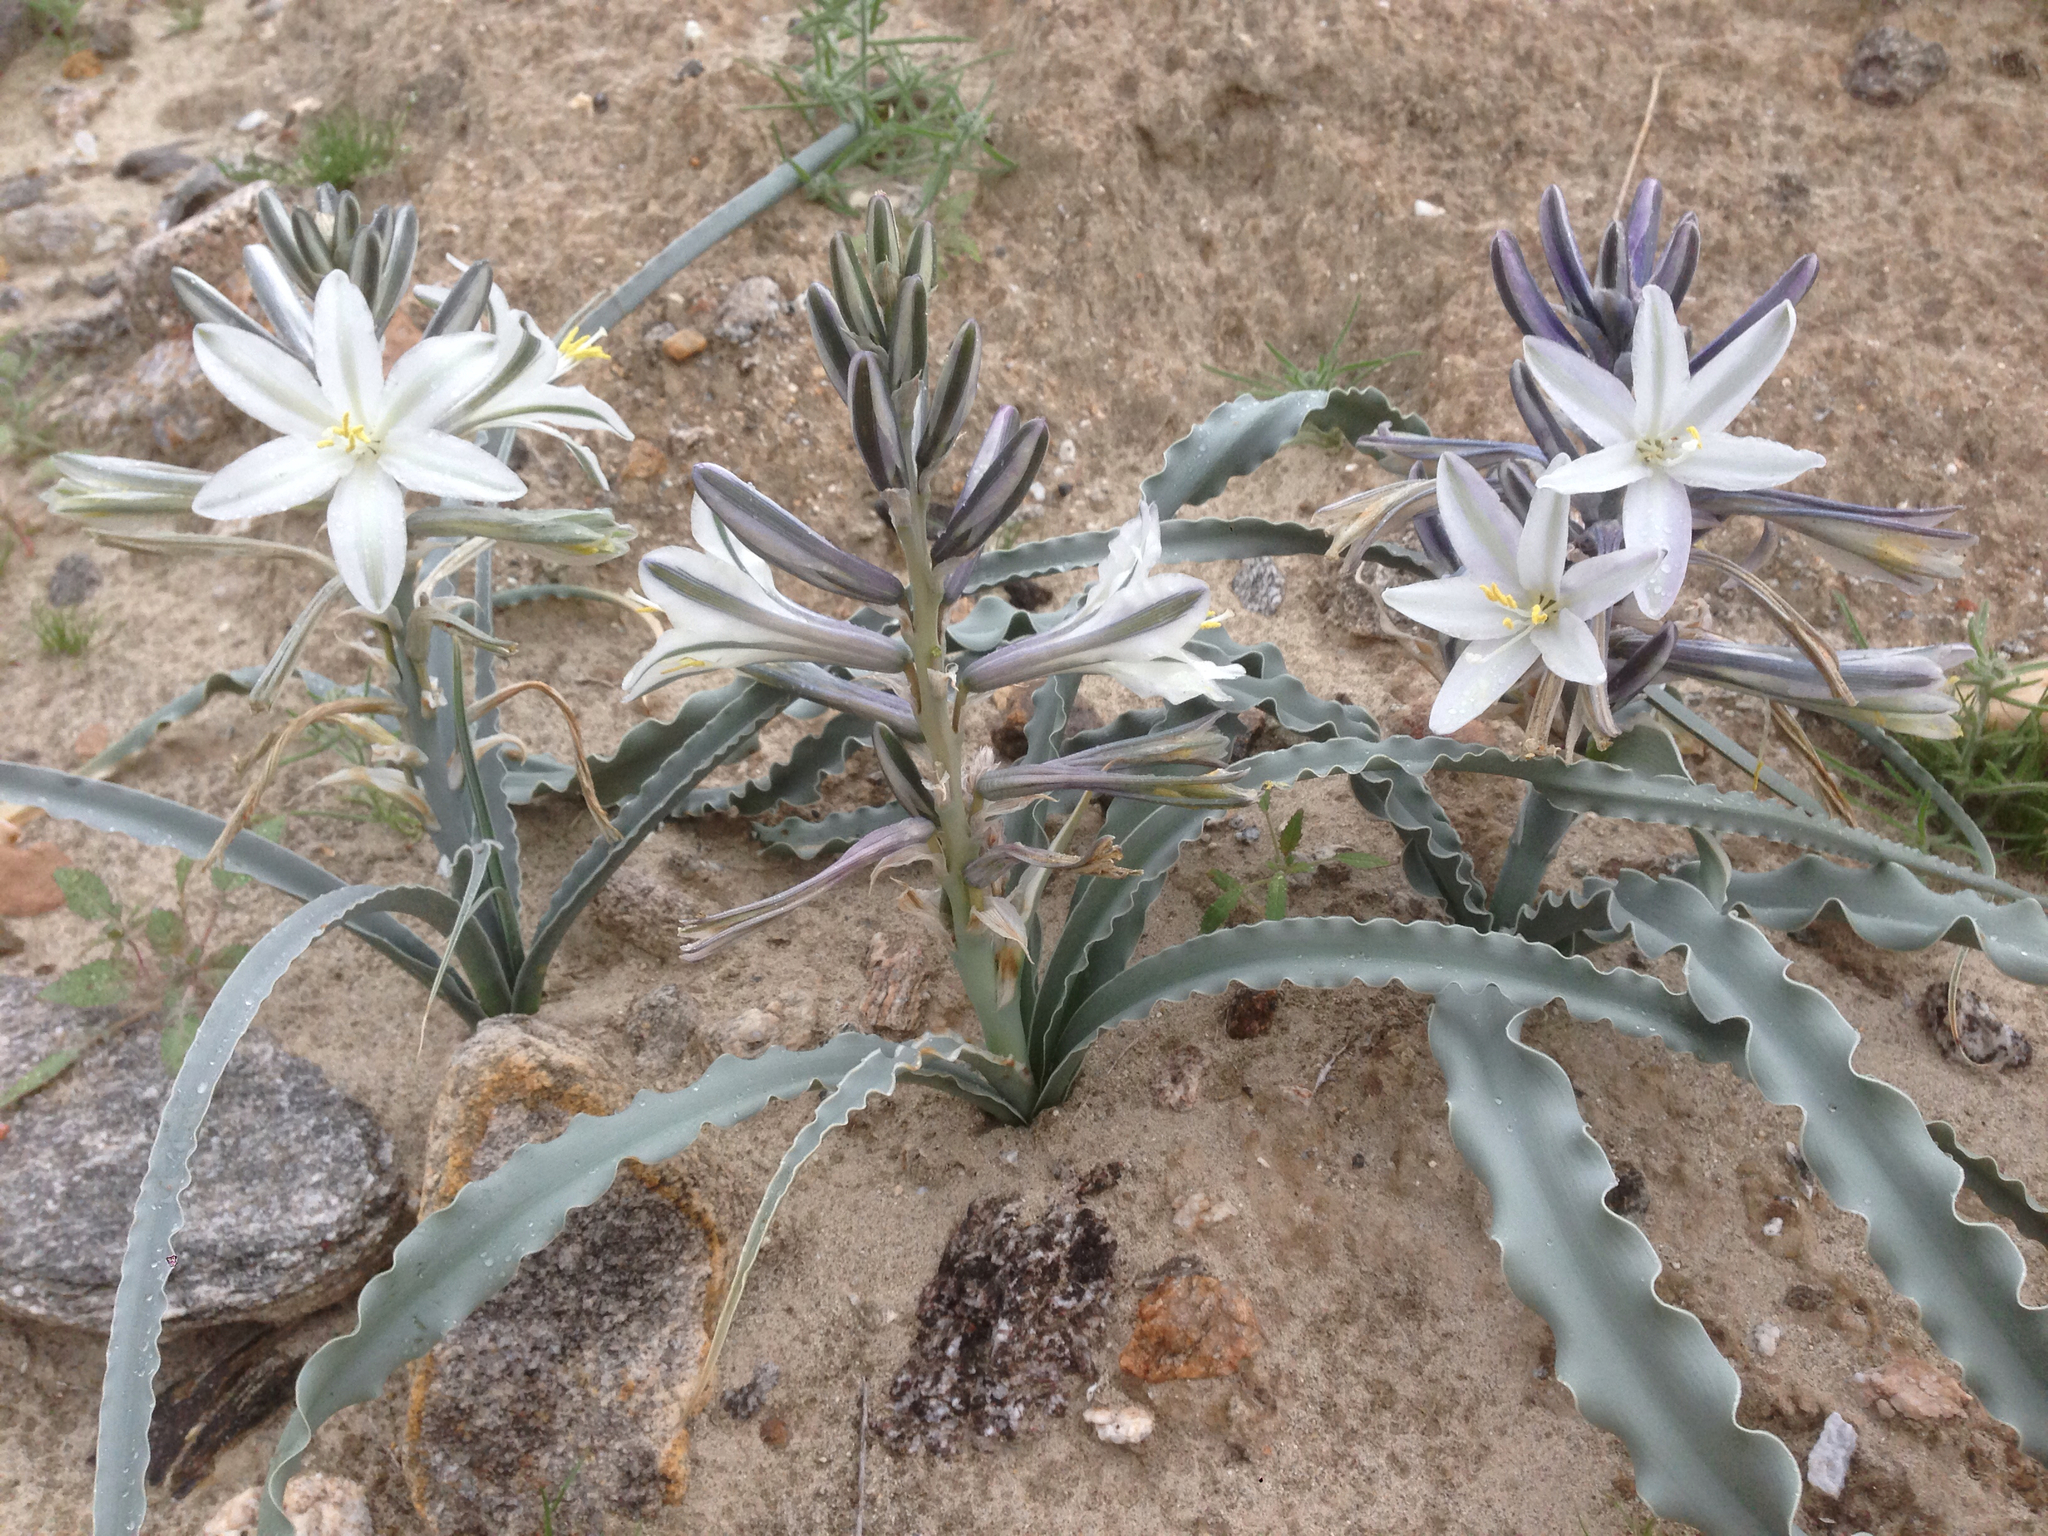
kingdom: Plantae
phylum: Tracheophyta
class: Liliopsida
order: Asparagales
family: Asparagaceae
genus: Hesperocallis
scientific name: Hesperocallis undulata
